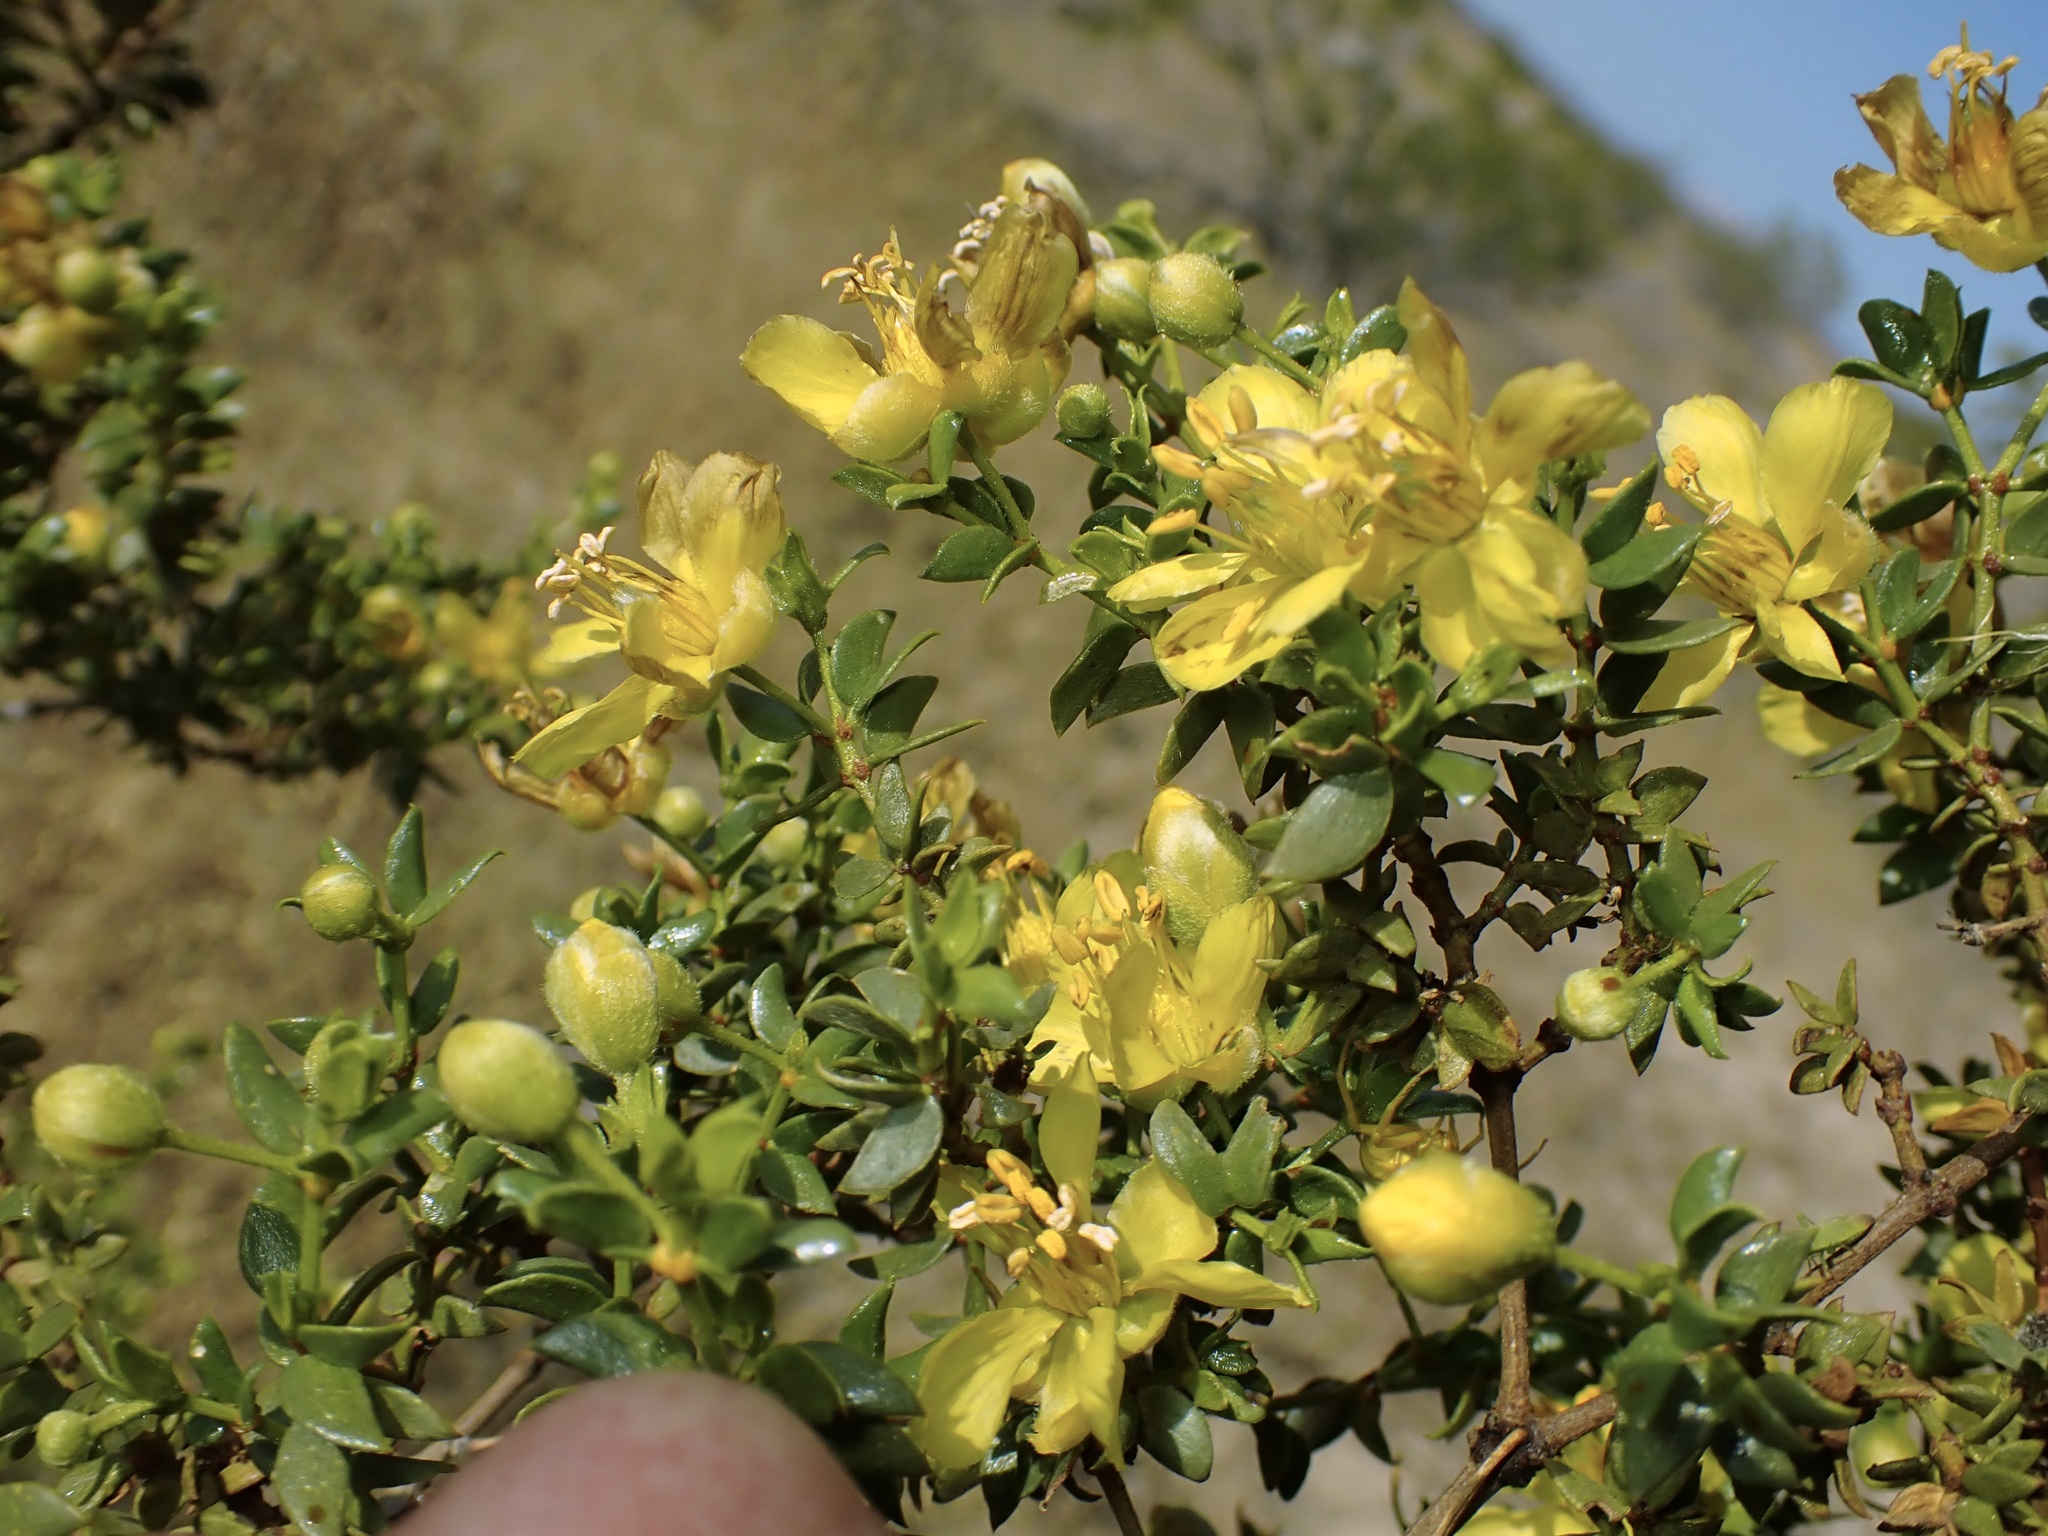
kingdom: Plantae
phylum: Tracheophyta
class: Magnoliopsida
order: Zygophyllales
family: Zygophyllaceae
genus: Larrea
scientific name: Larrea tridentata
